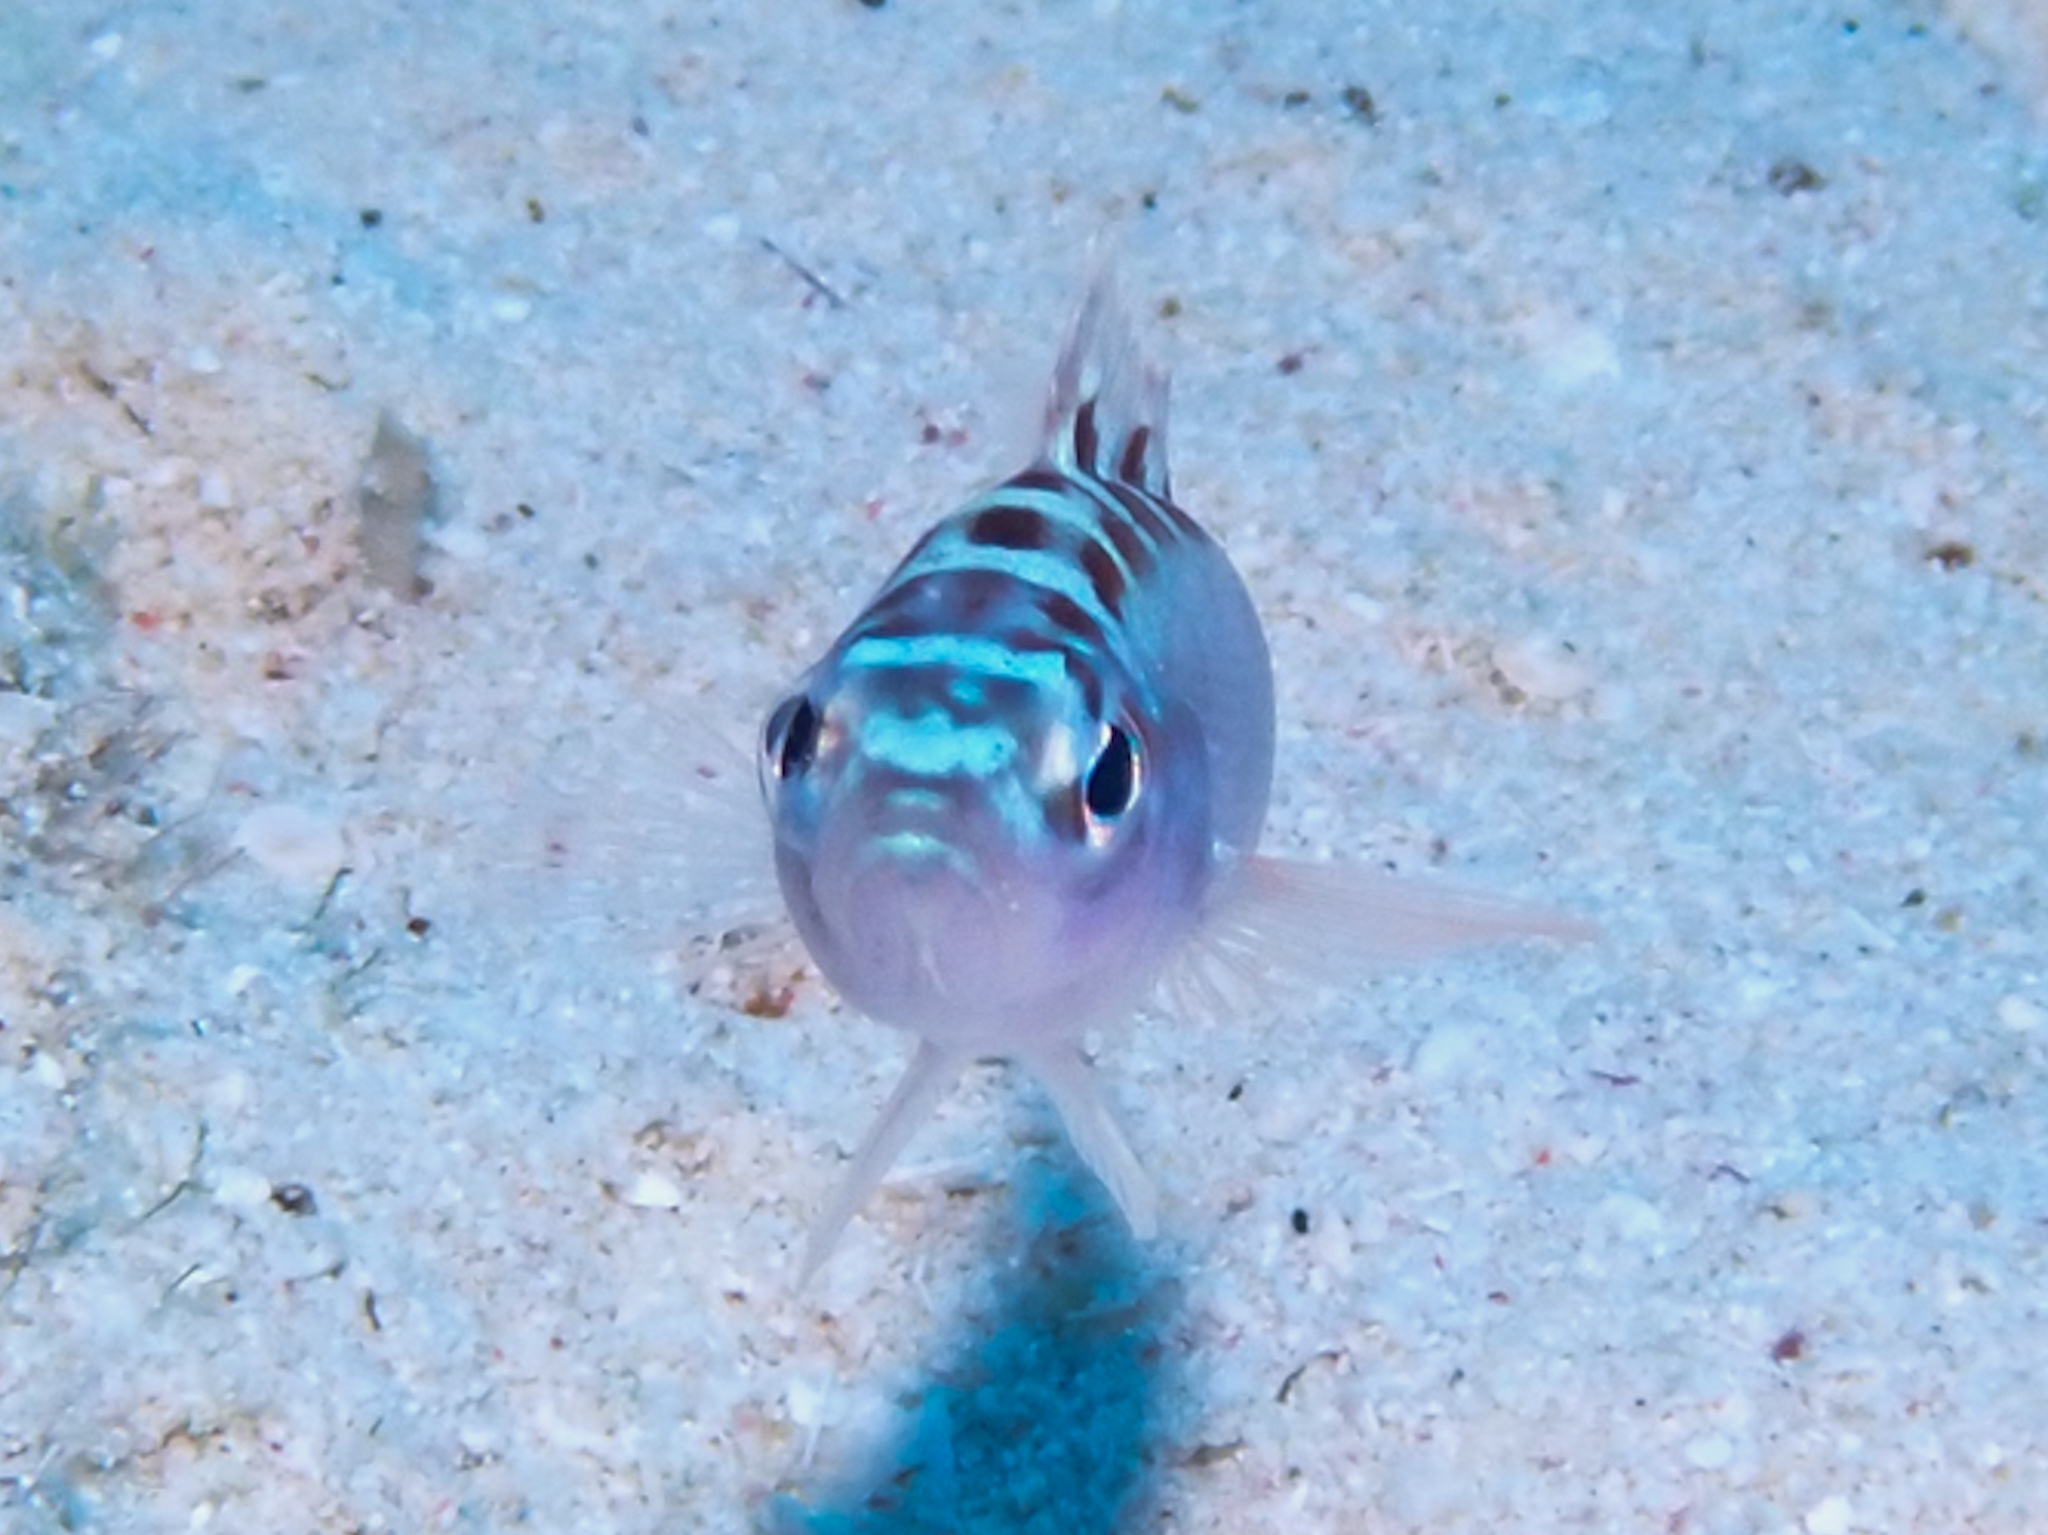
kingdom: Animalia
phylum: Chordata
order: Perciformes
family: Serranidae
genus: Serranus
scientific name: Serranus tortugarum
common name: Chalk bass
